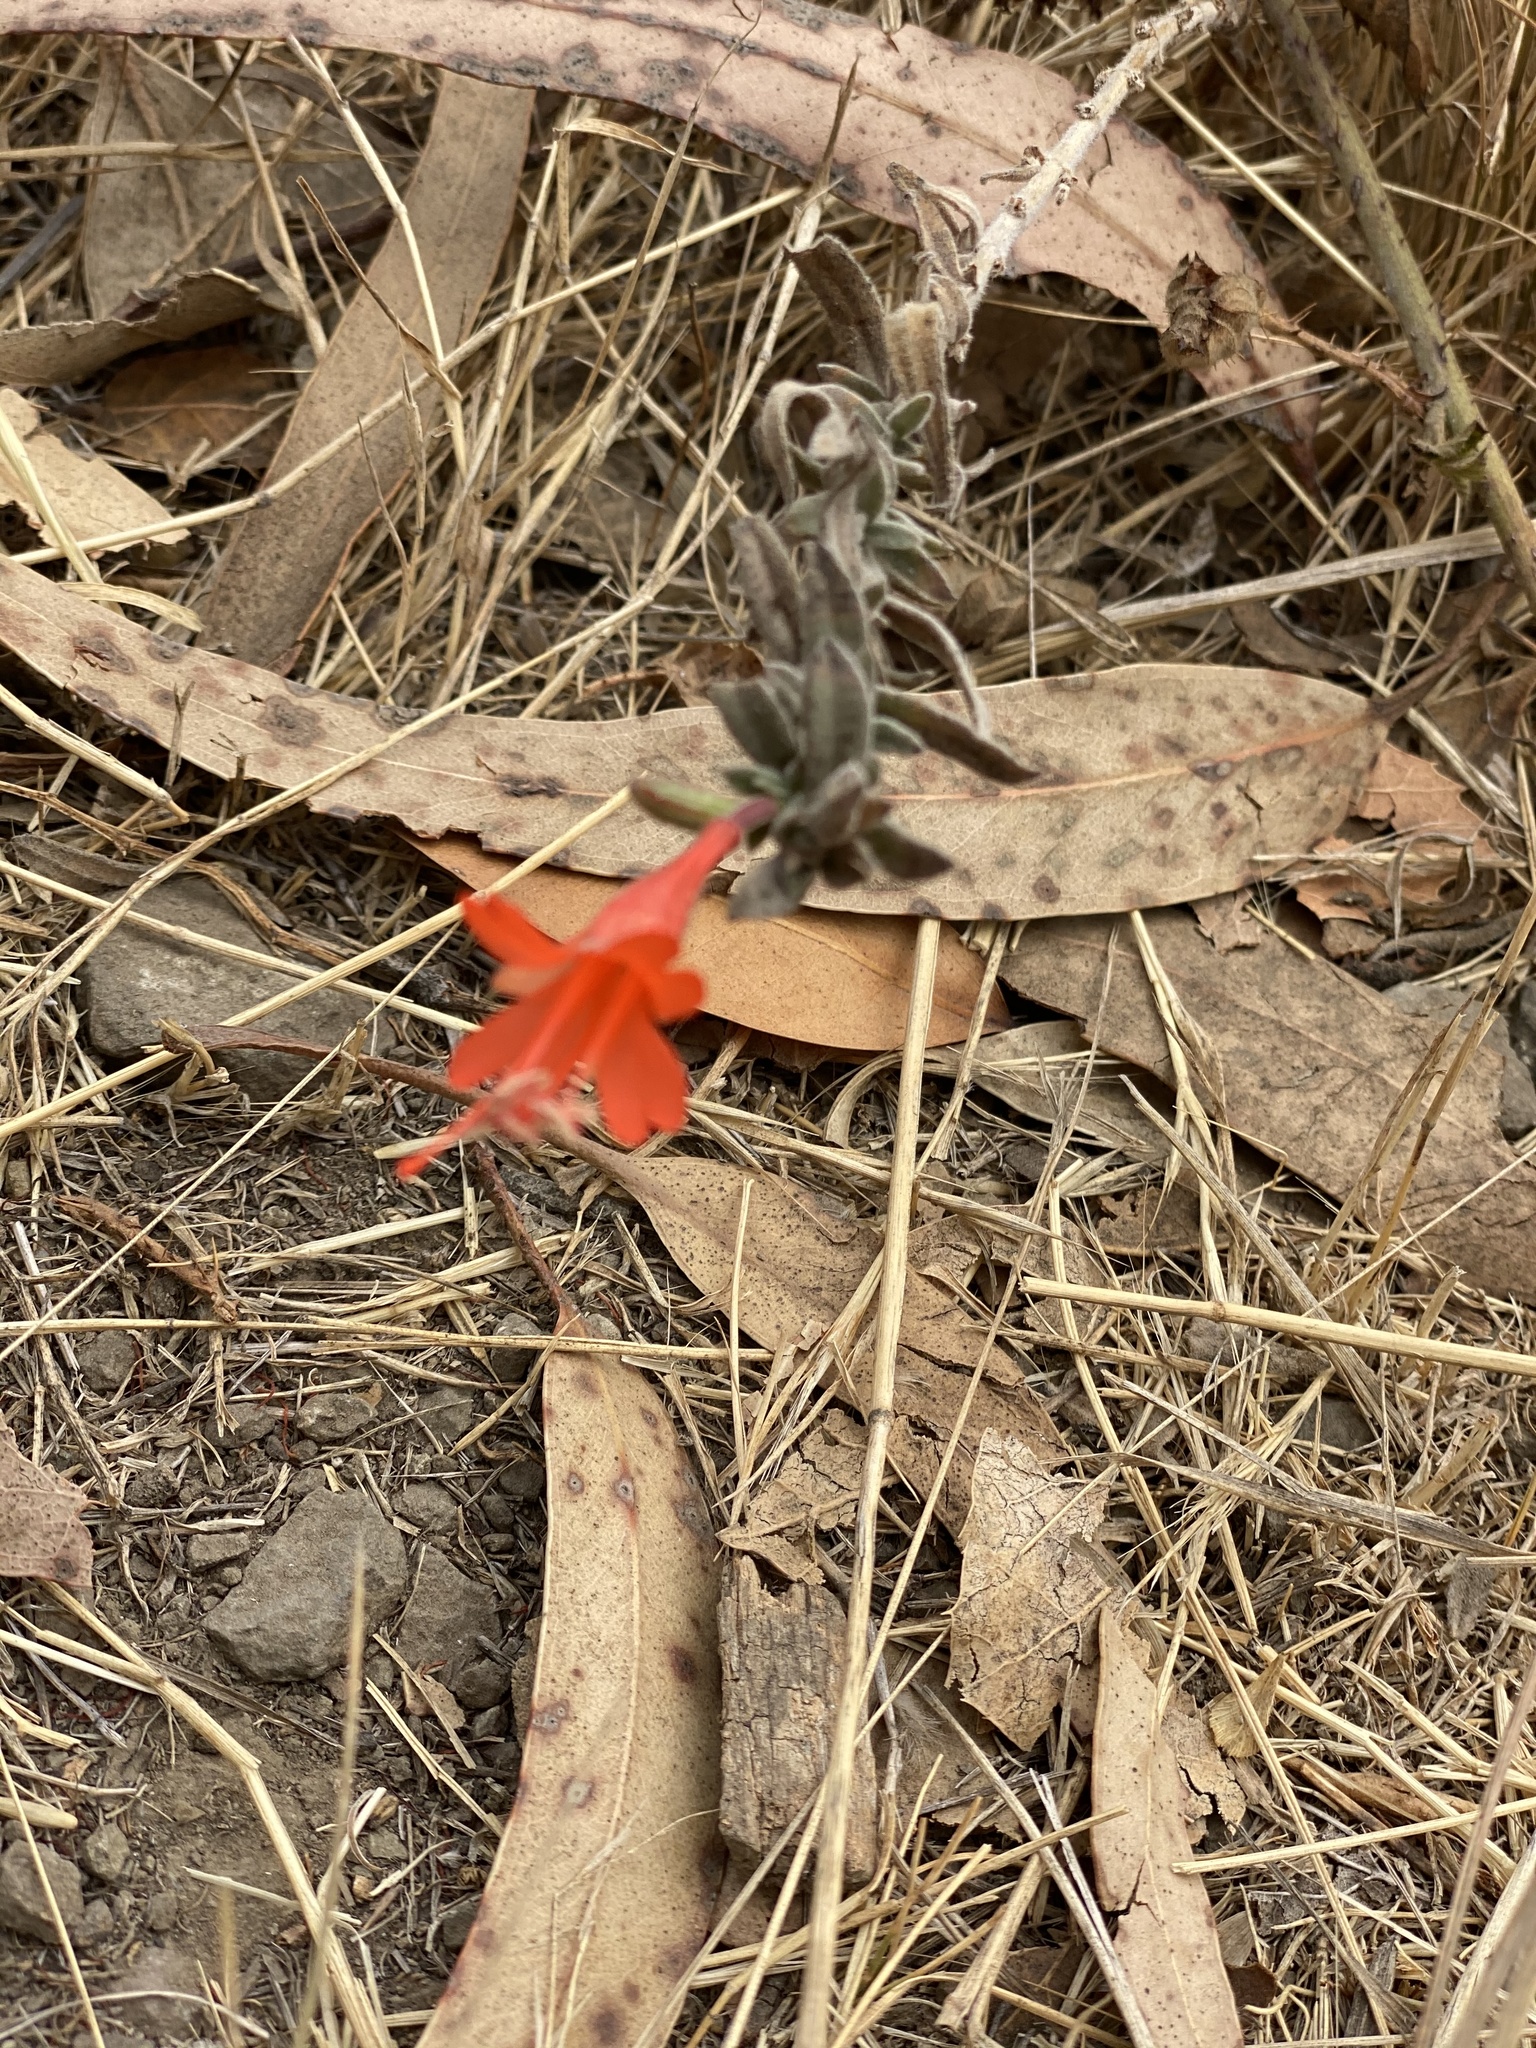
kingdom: Plantae
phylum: Tracheophyta
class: Magnoliopsida
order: Myrtales
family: Onagraceae
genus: Epilobium
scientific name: Epilobium canum
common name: California-fuchsia
